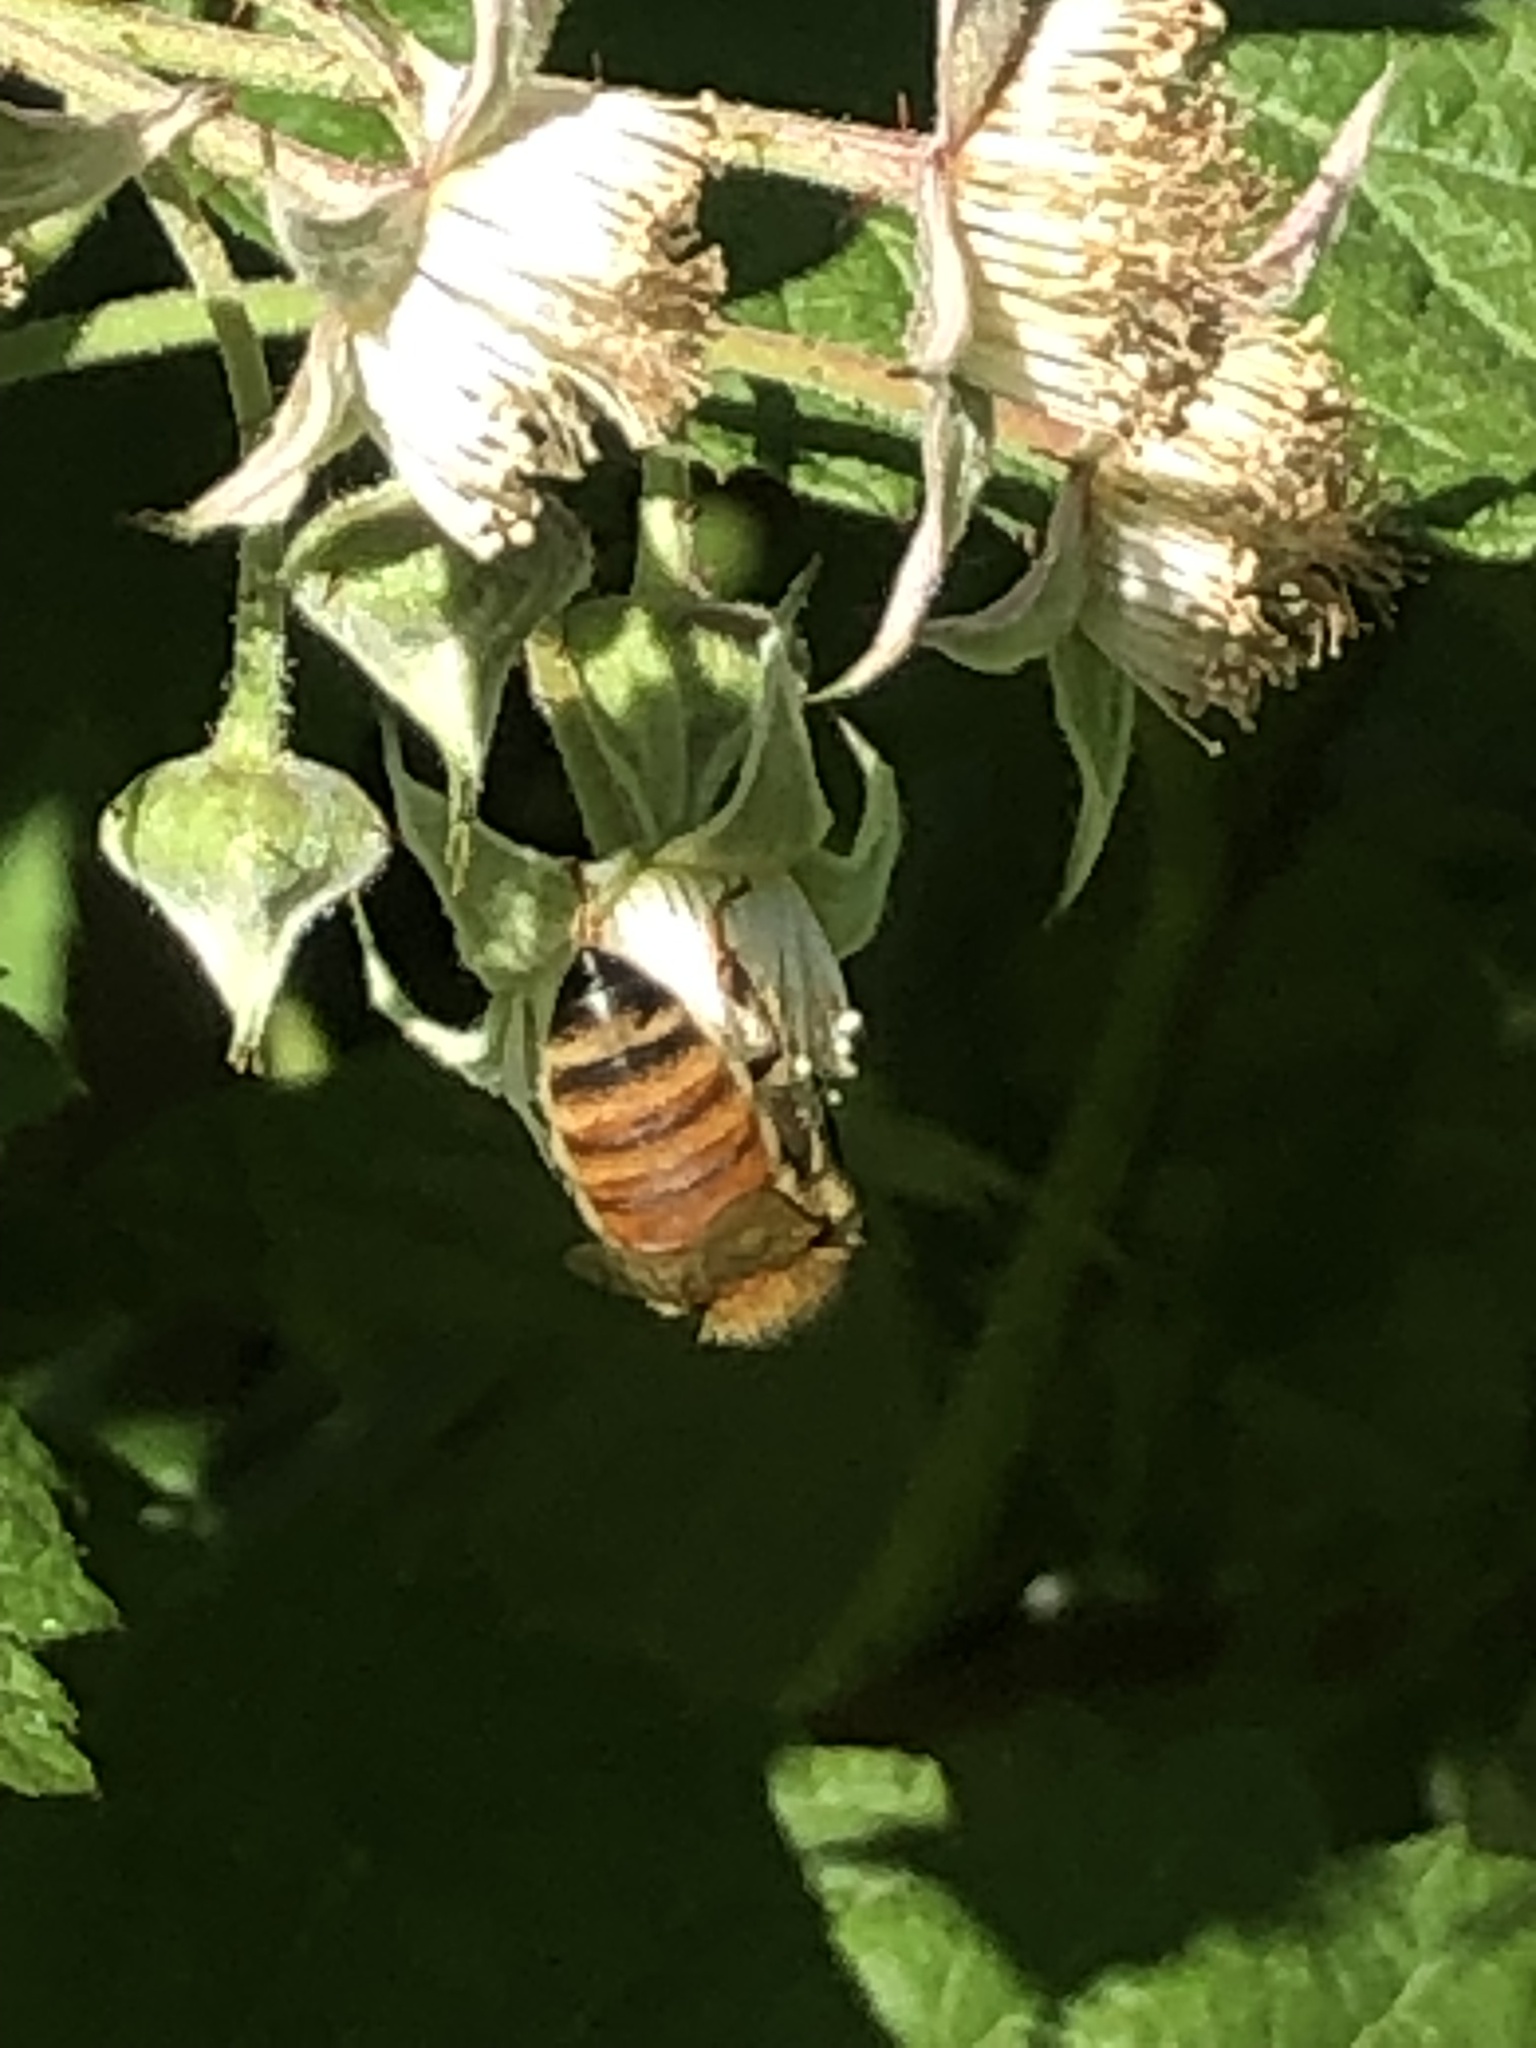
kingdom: Animalia
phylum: Arthropoda
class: Insecta
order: Hymenoptera
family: Apidae
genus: Apis
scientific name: Apis mellifera
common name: Honey bee
